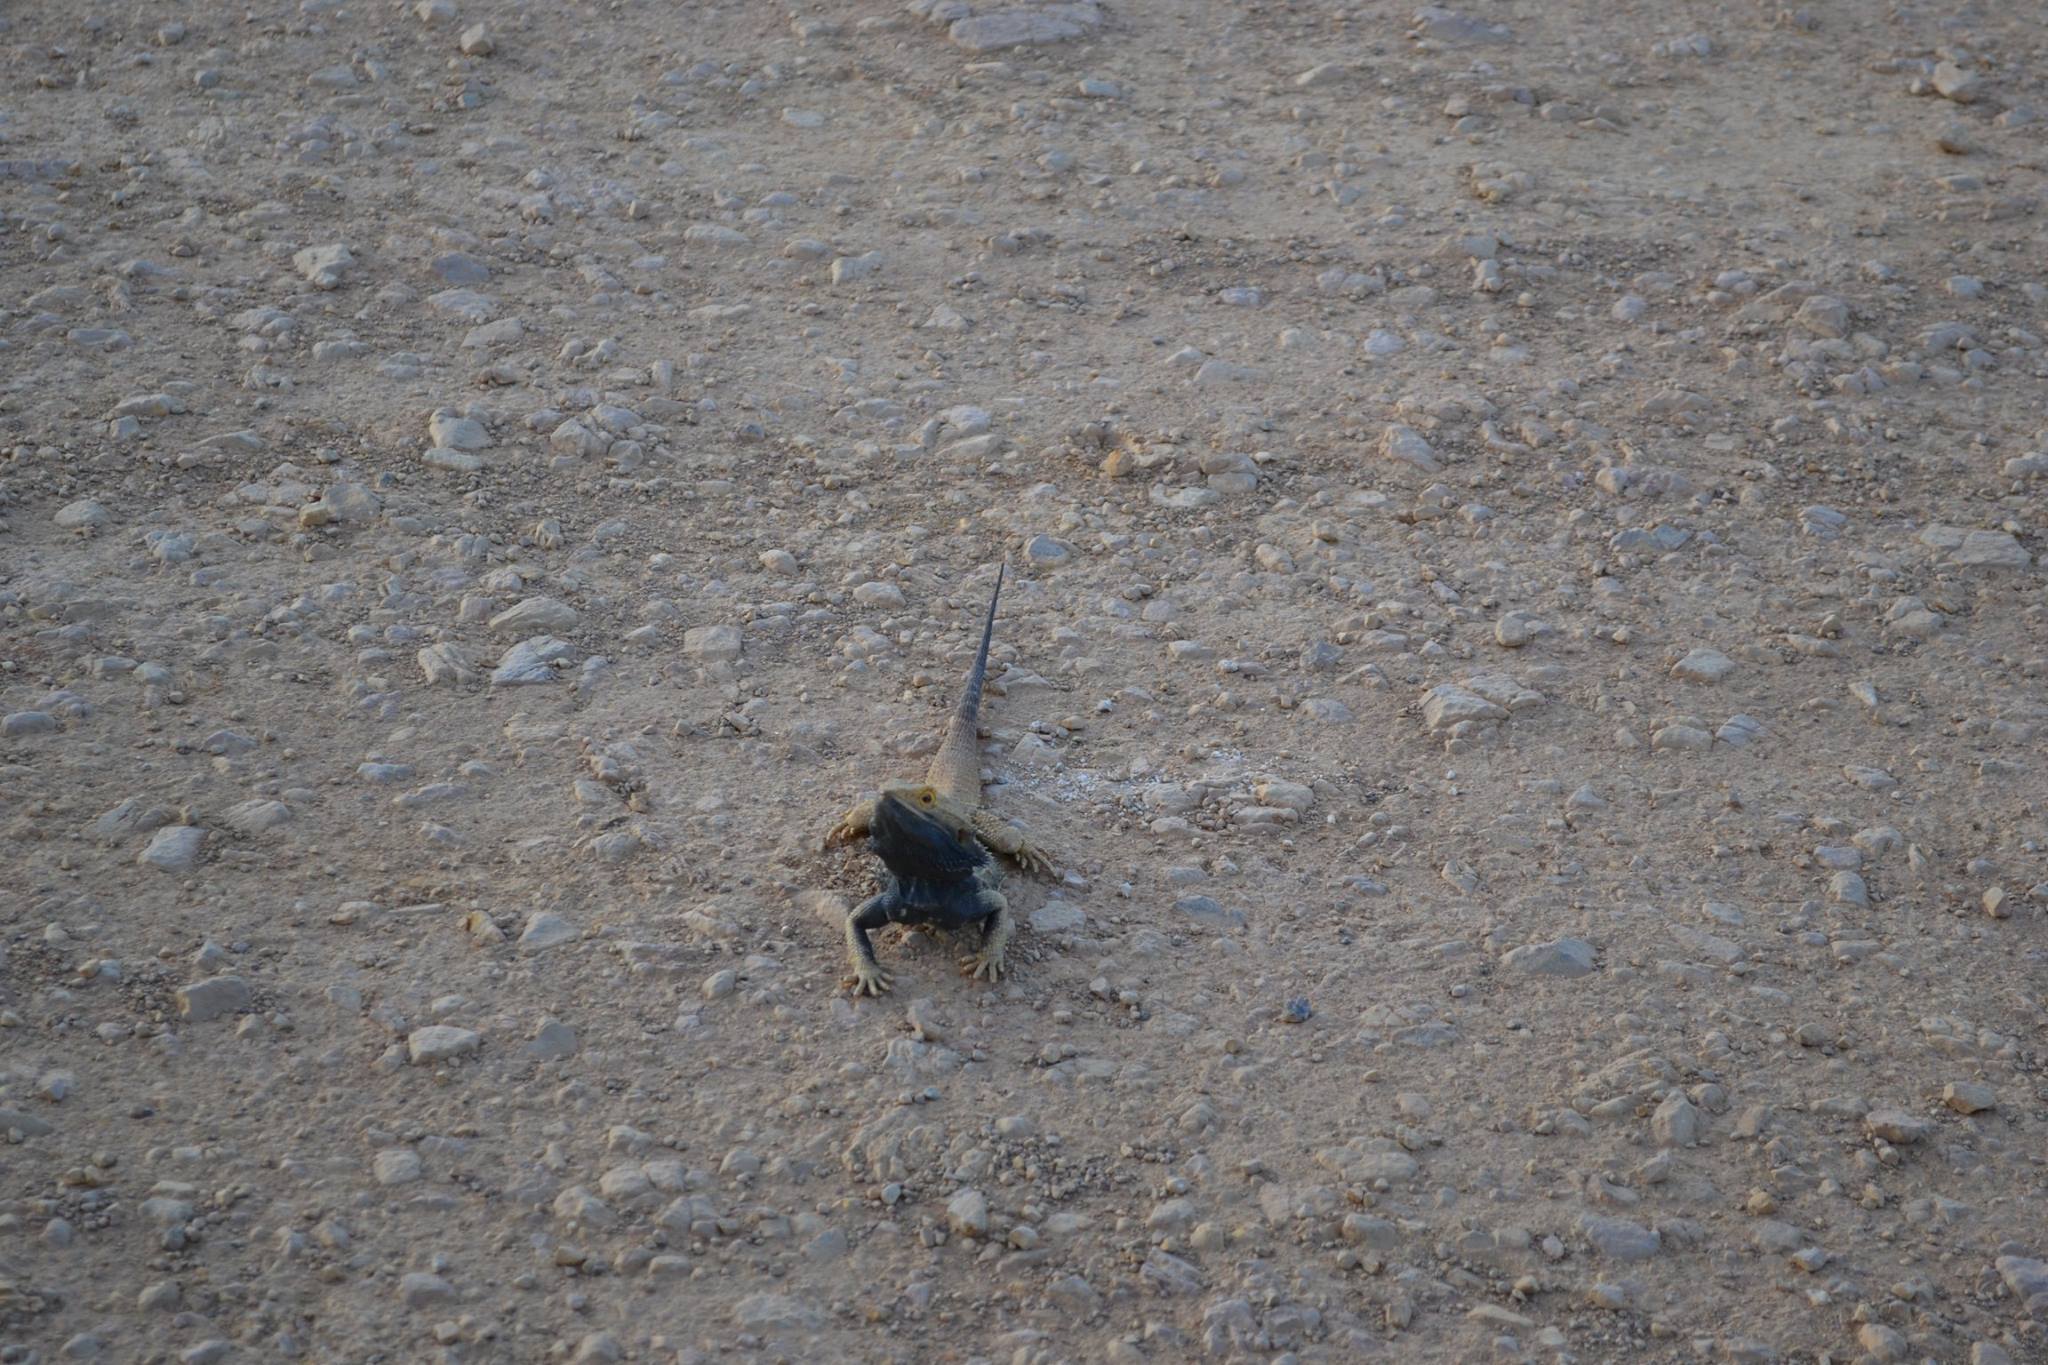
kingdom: Animalia
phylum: Chordata
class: Squamata
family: Agamidae
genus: Pogona
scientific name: Pogona vitticeps
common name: Central bearded dragon
